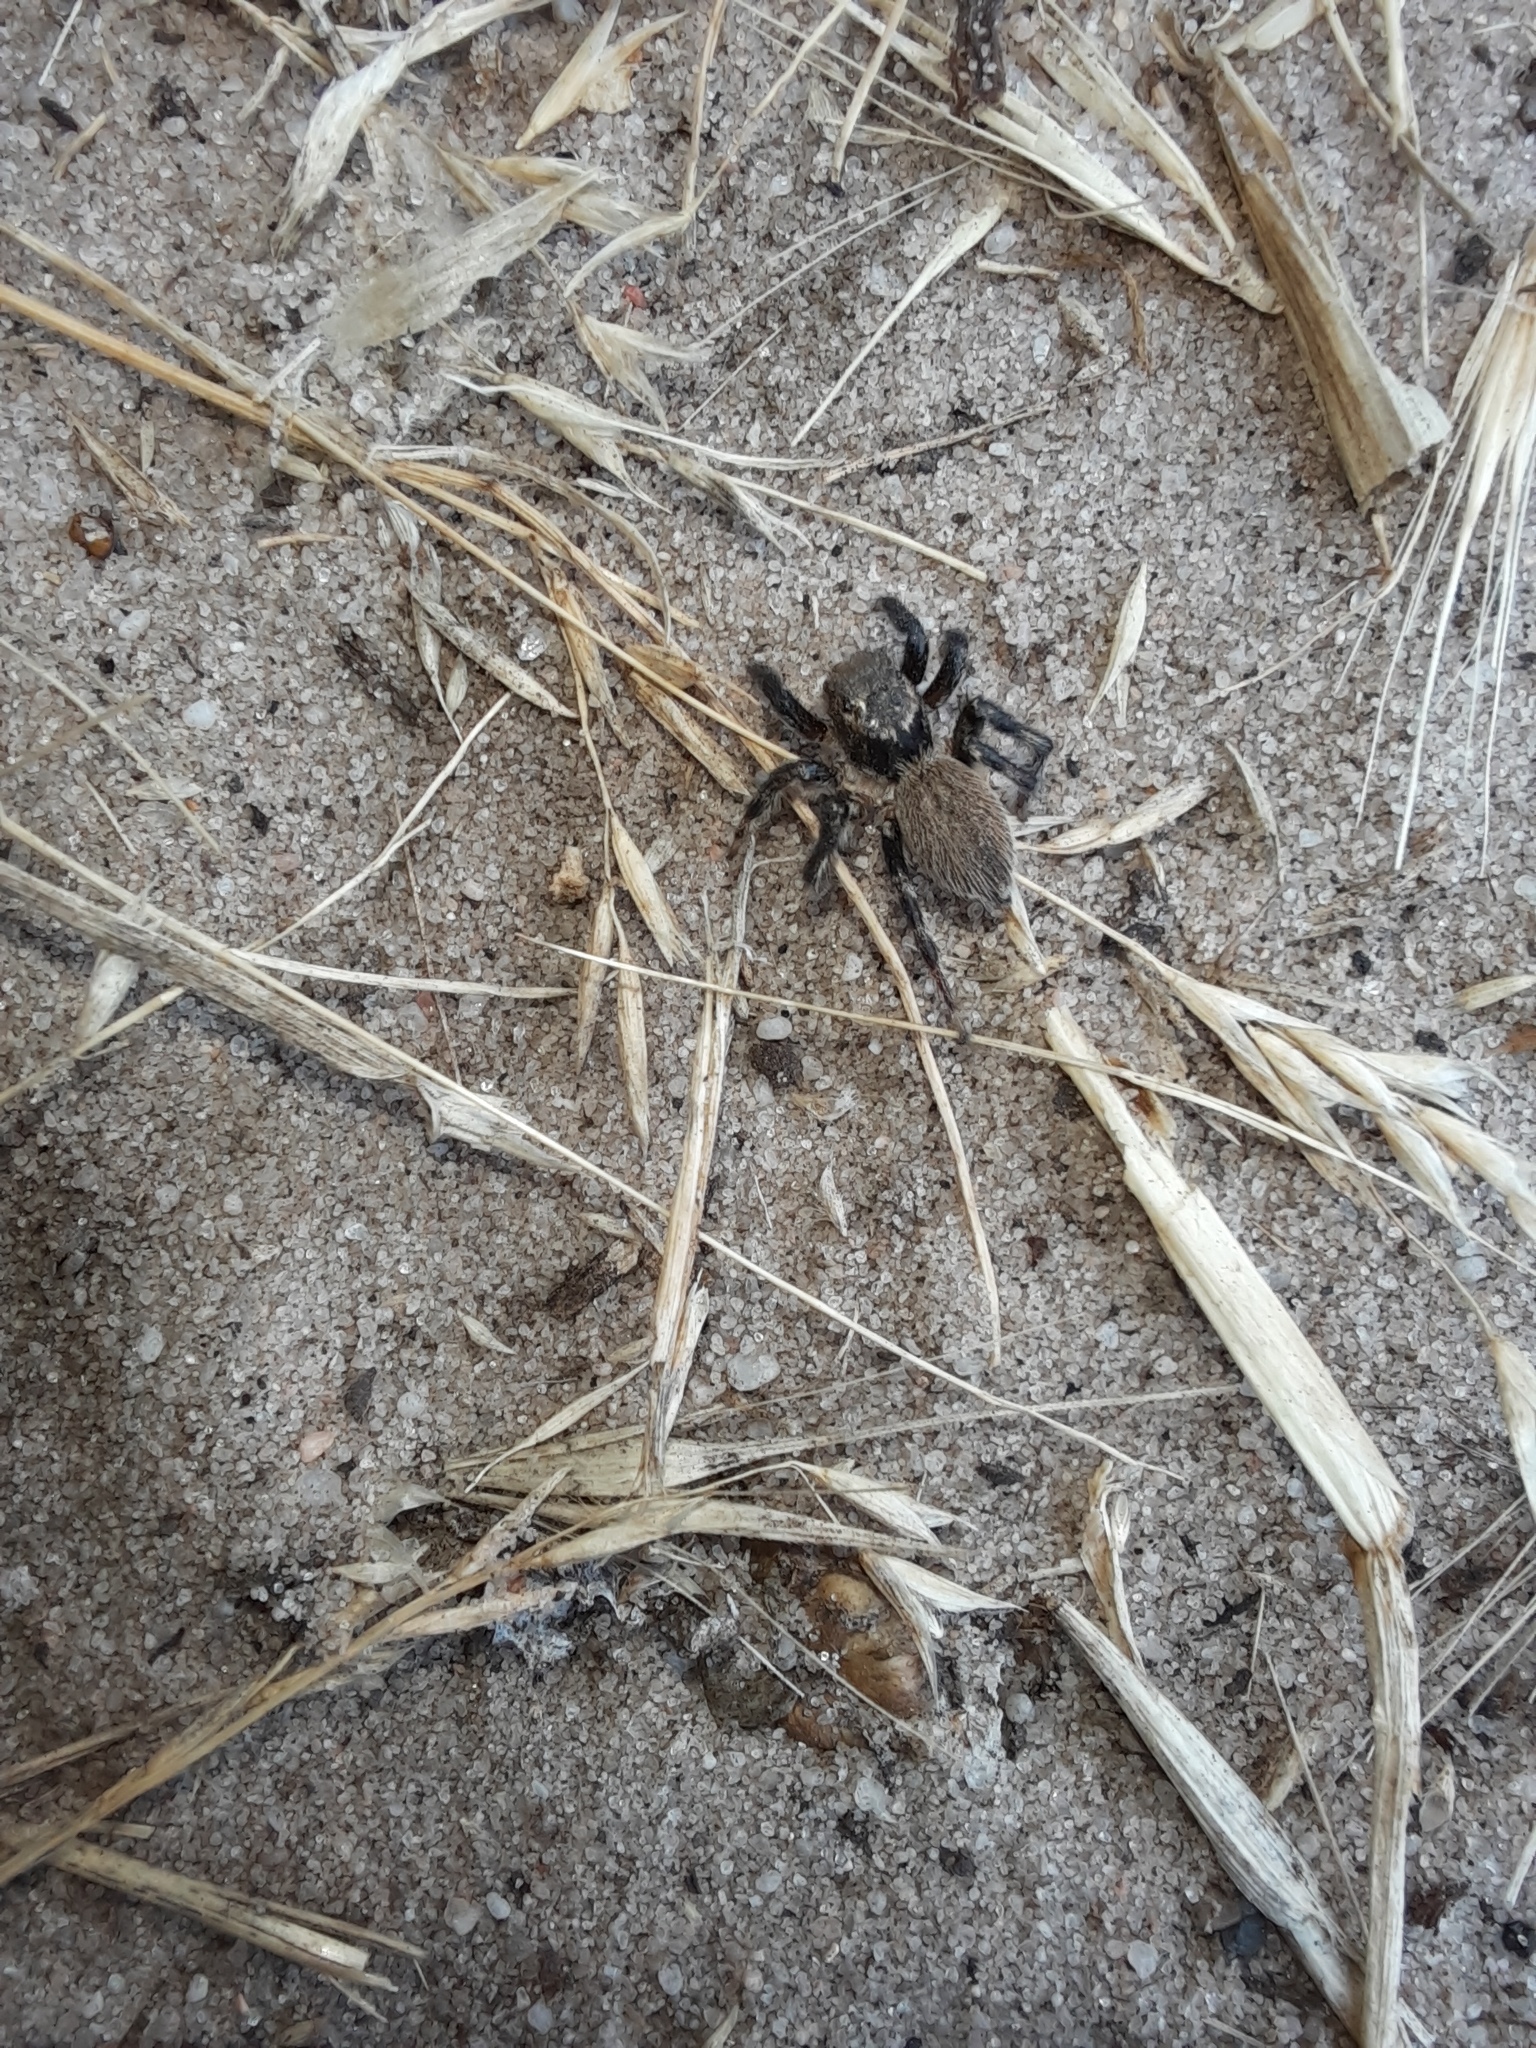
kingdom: Animalia
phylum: Arthropoda
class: Arachnida
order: Araneae
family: Salticidae
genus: Maratus
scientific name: Maratus griseus
